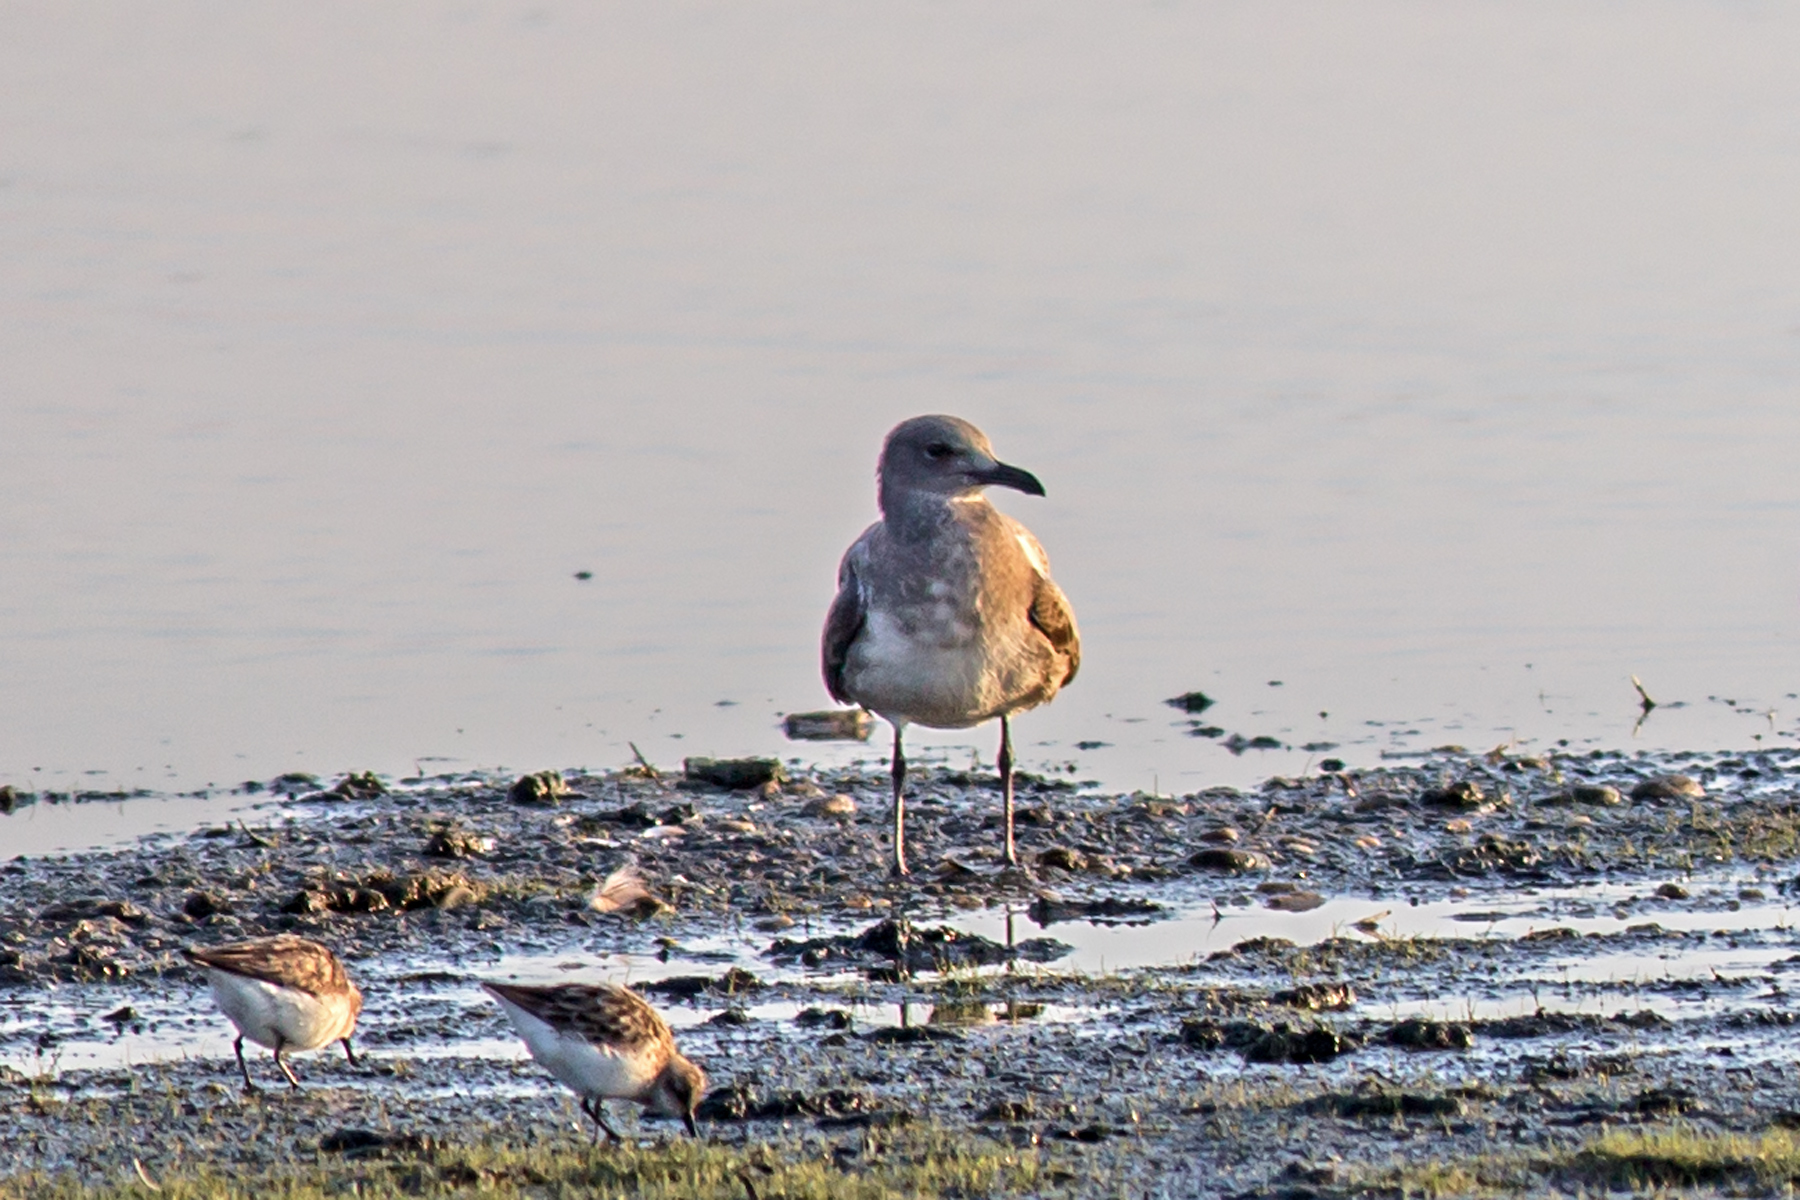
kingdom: Animalia
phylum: Chordata
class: Aves
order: Charadriiformes
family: Laridae
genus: Leucophaeus
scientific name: Leucophaeus atricilla
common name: Laughing gull
